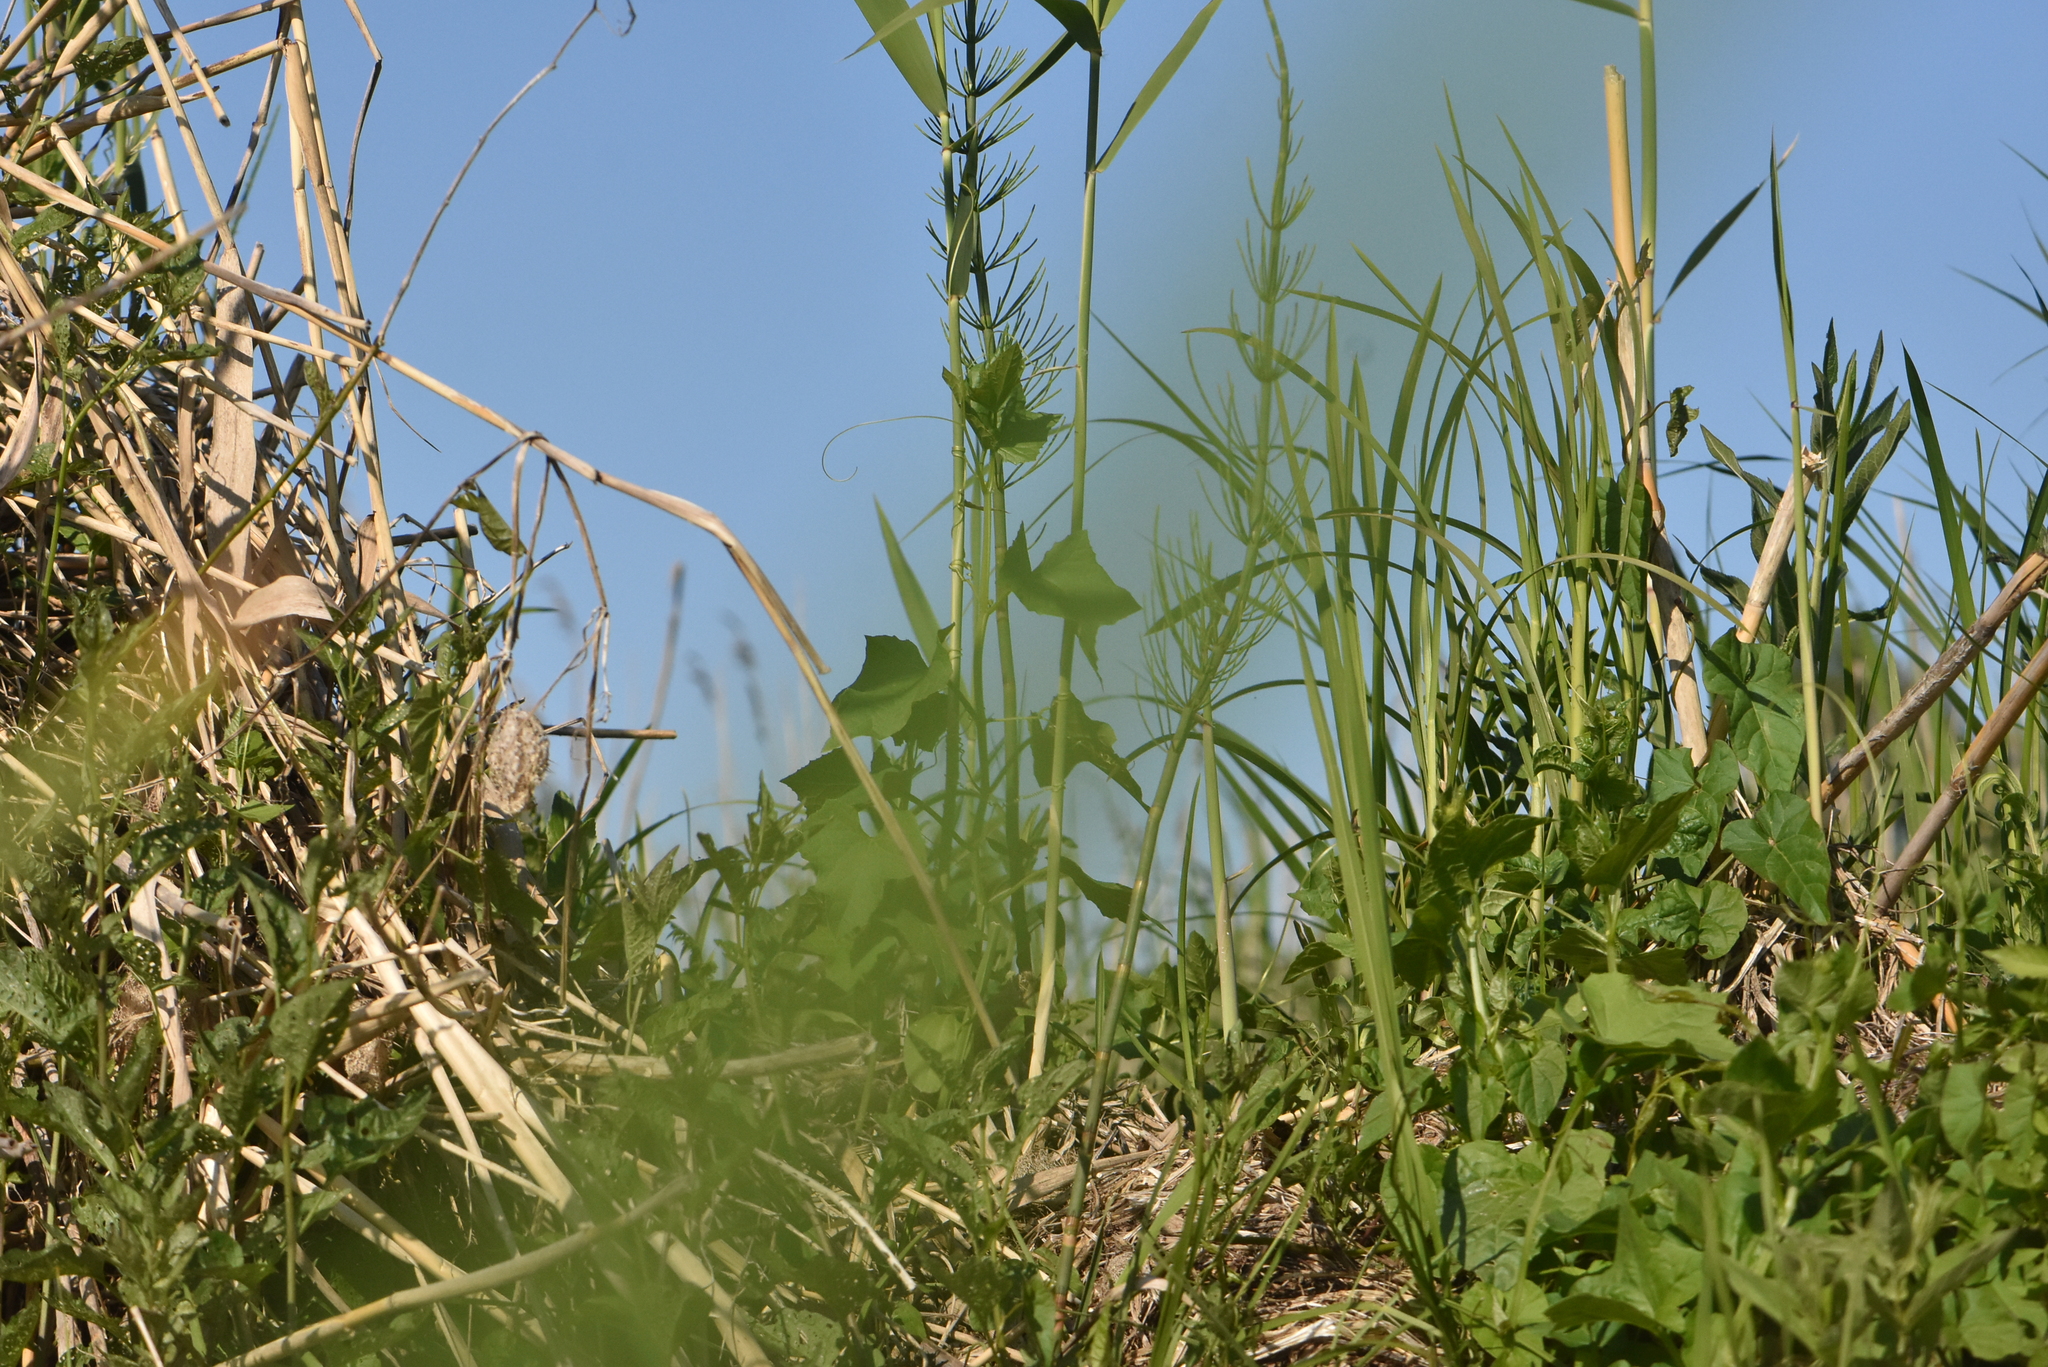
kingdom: Plantae
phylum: Tracheophyta
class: Magnoliopsida
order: Cucurbitales
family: Cucurbitaceae
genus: Echinocystis
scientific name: Echinocystis lobata
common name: Wild cucumber
